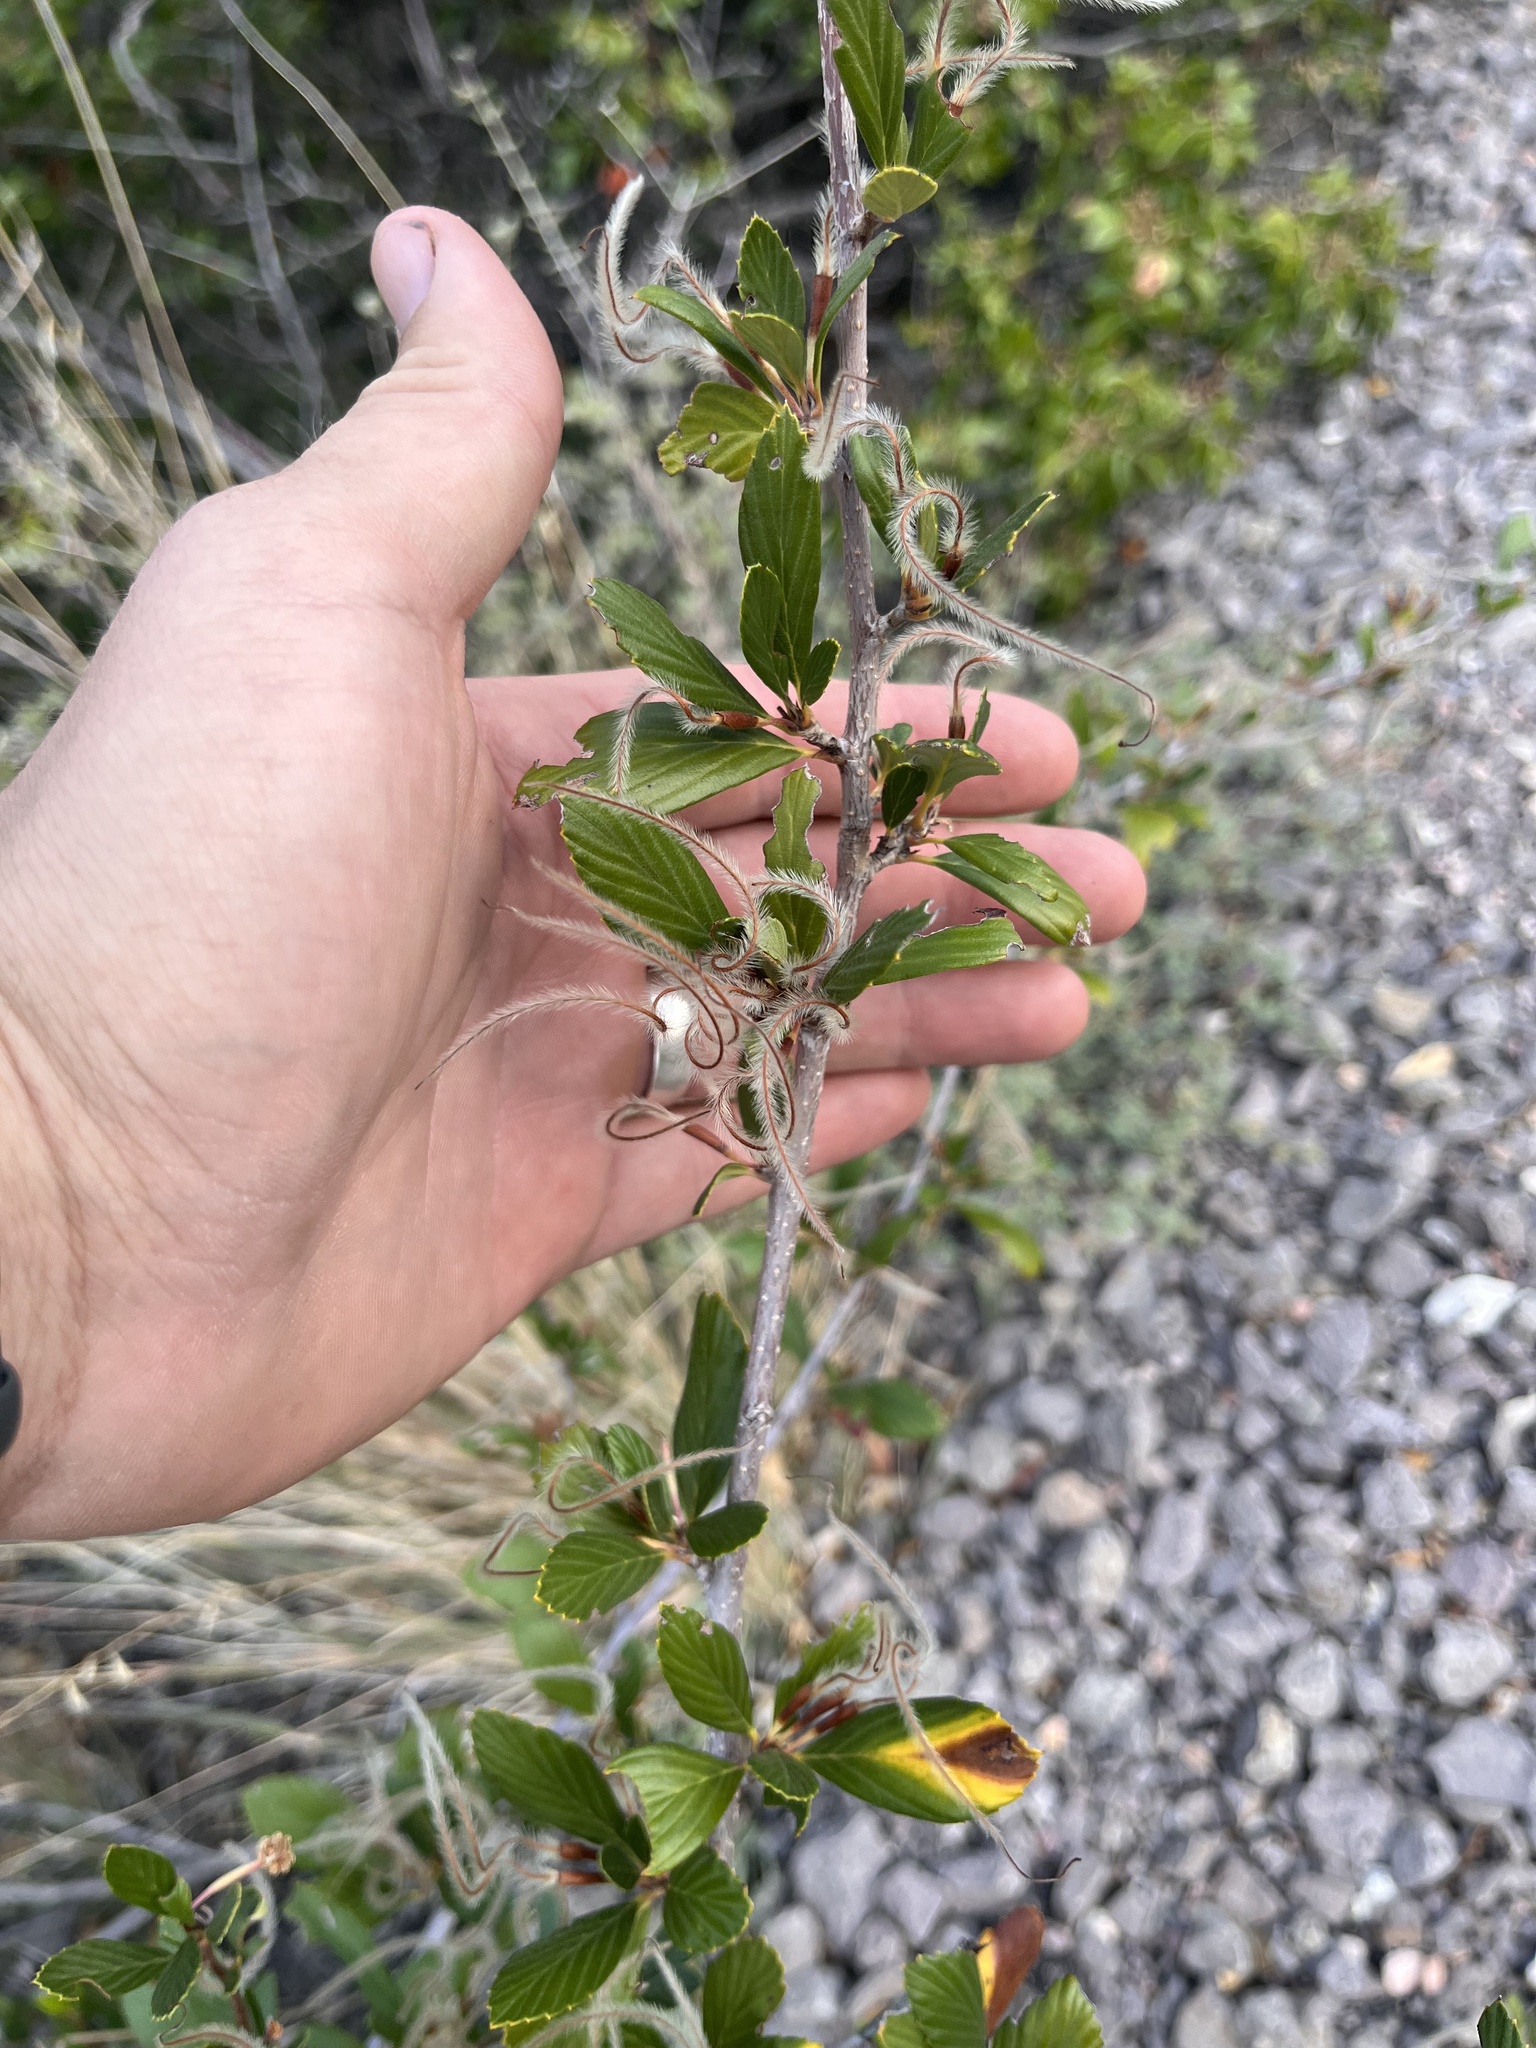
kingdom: Plantae
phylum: Tracheophyta
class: Magnoliopsida
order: Rosales
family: Rosaceae
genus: Cercocarpus
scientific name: Cercocarpus montanus
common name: Alder-leaf cercocarpus
